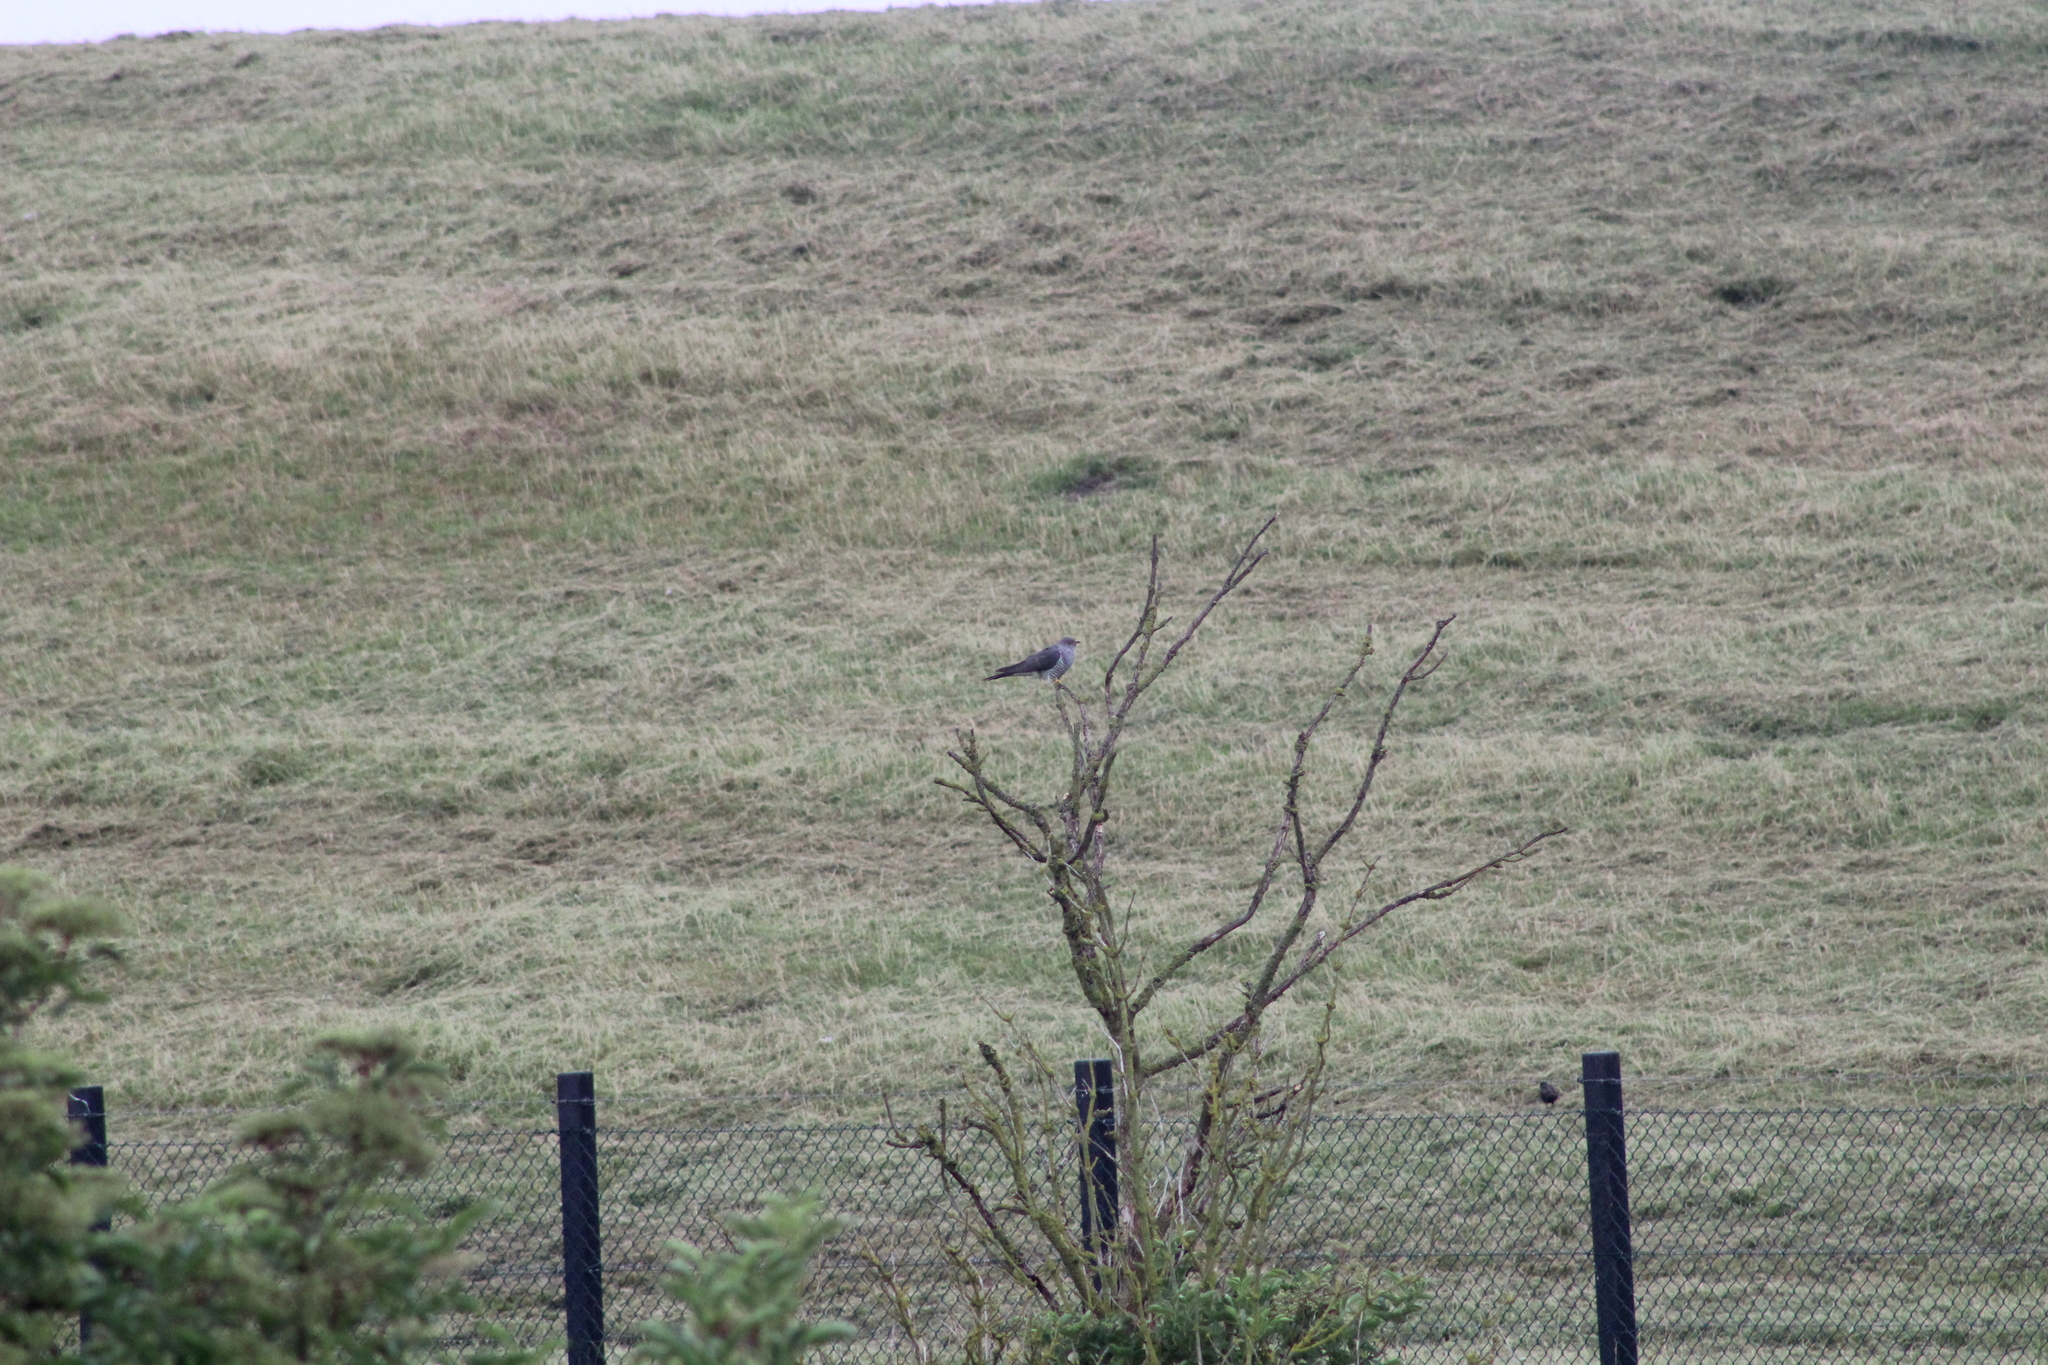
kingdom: Animalia
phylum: Chordata
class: Aves
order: Cuculiformes
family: Cuculidae
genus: Cuculus
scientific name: Cuculus canorus
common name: Common cuckoo
